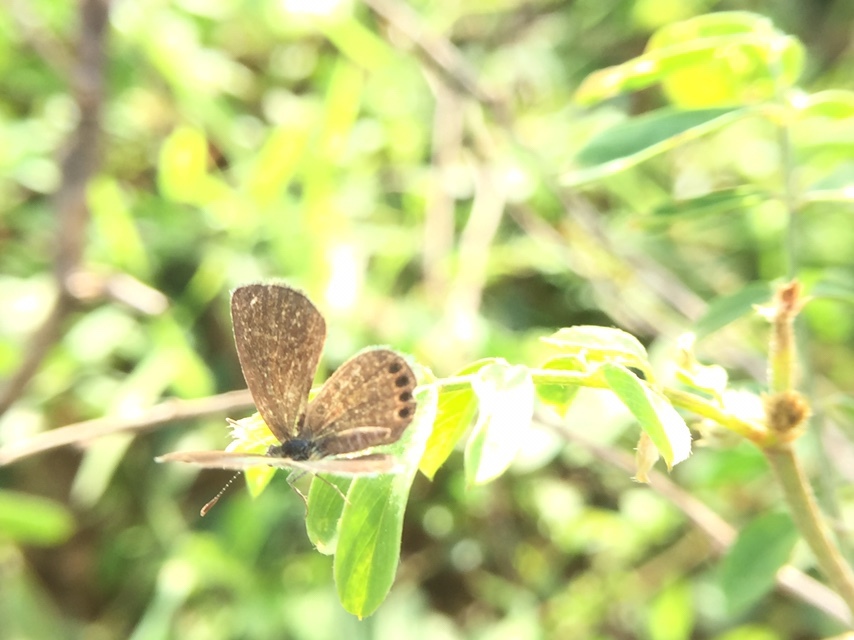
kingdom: Animalia
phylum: Arthropoda
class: Insecta
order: Lepidoptera
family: Lycaenidae
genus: Freyeria
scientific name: Freyeria putli
